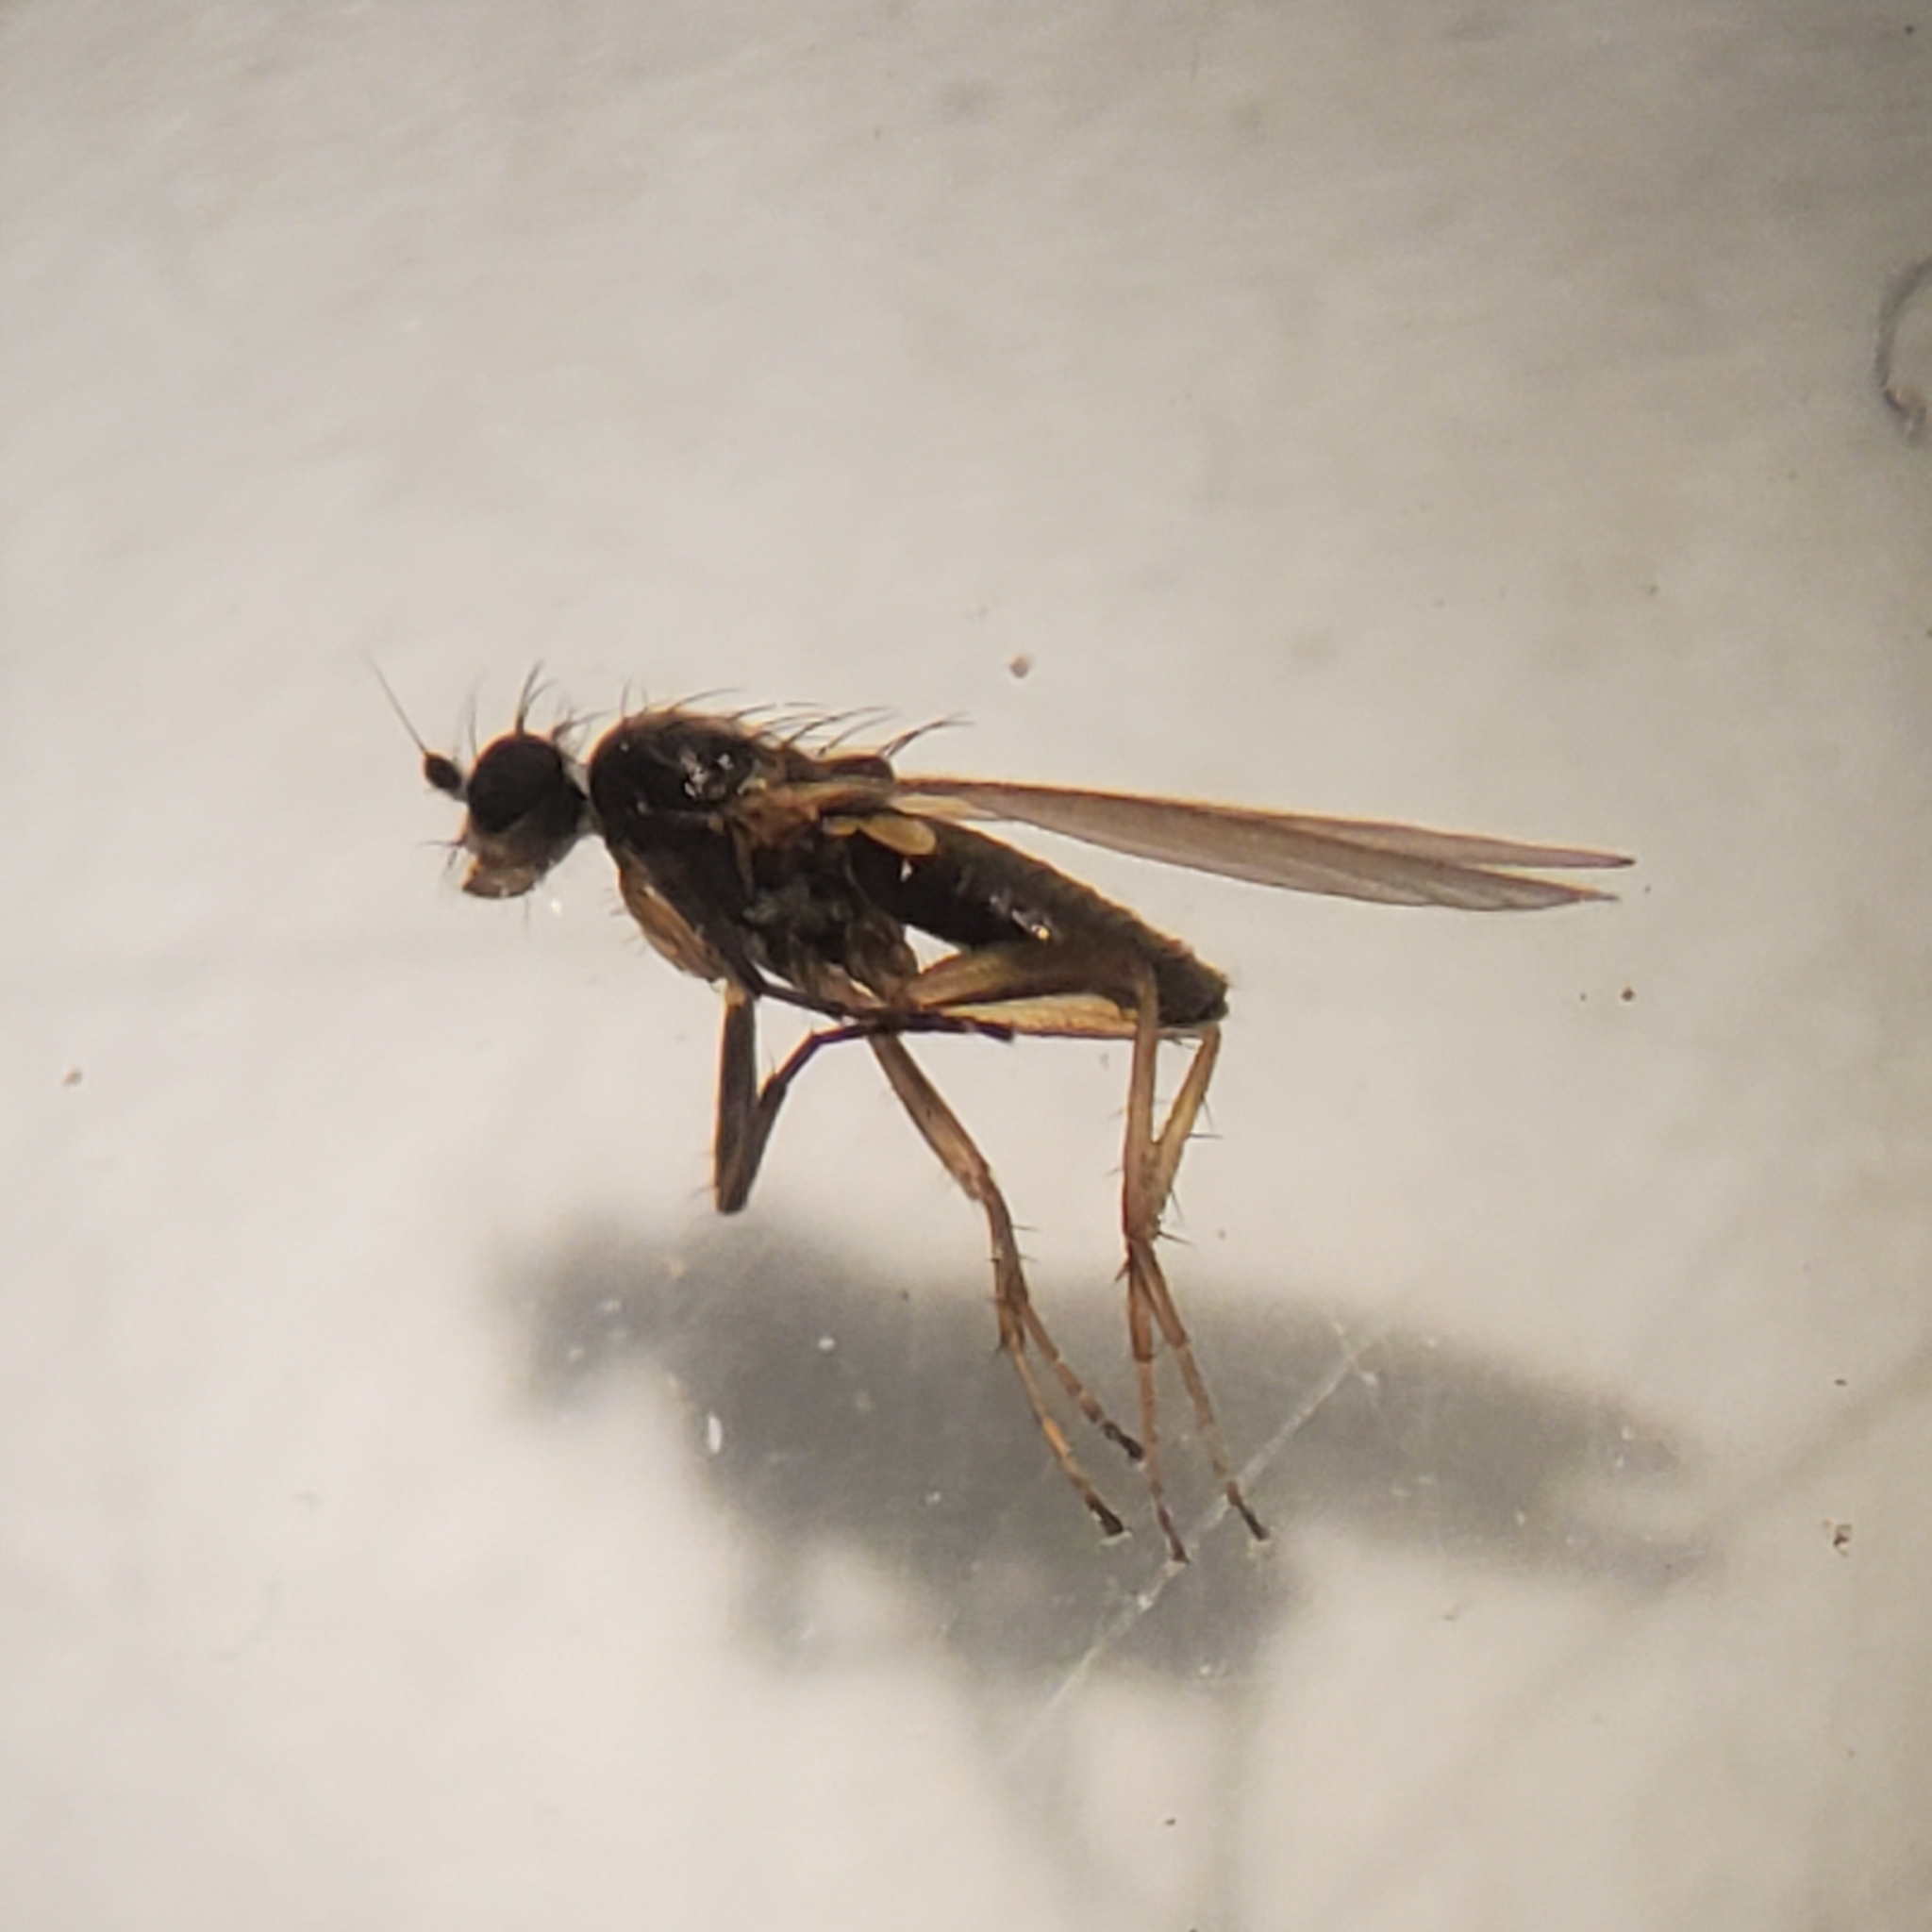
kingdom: Animalia
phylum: Arthropoda
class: Insecta
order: Diptera
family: Lonchopteridae
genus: Lonchoptera
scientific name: Lonchoptera uniseta
